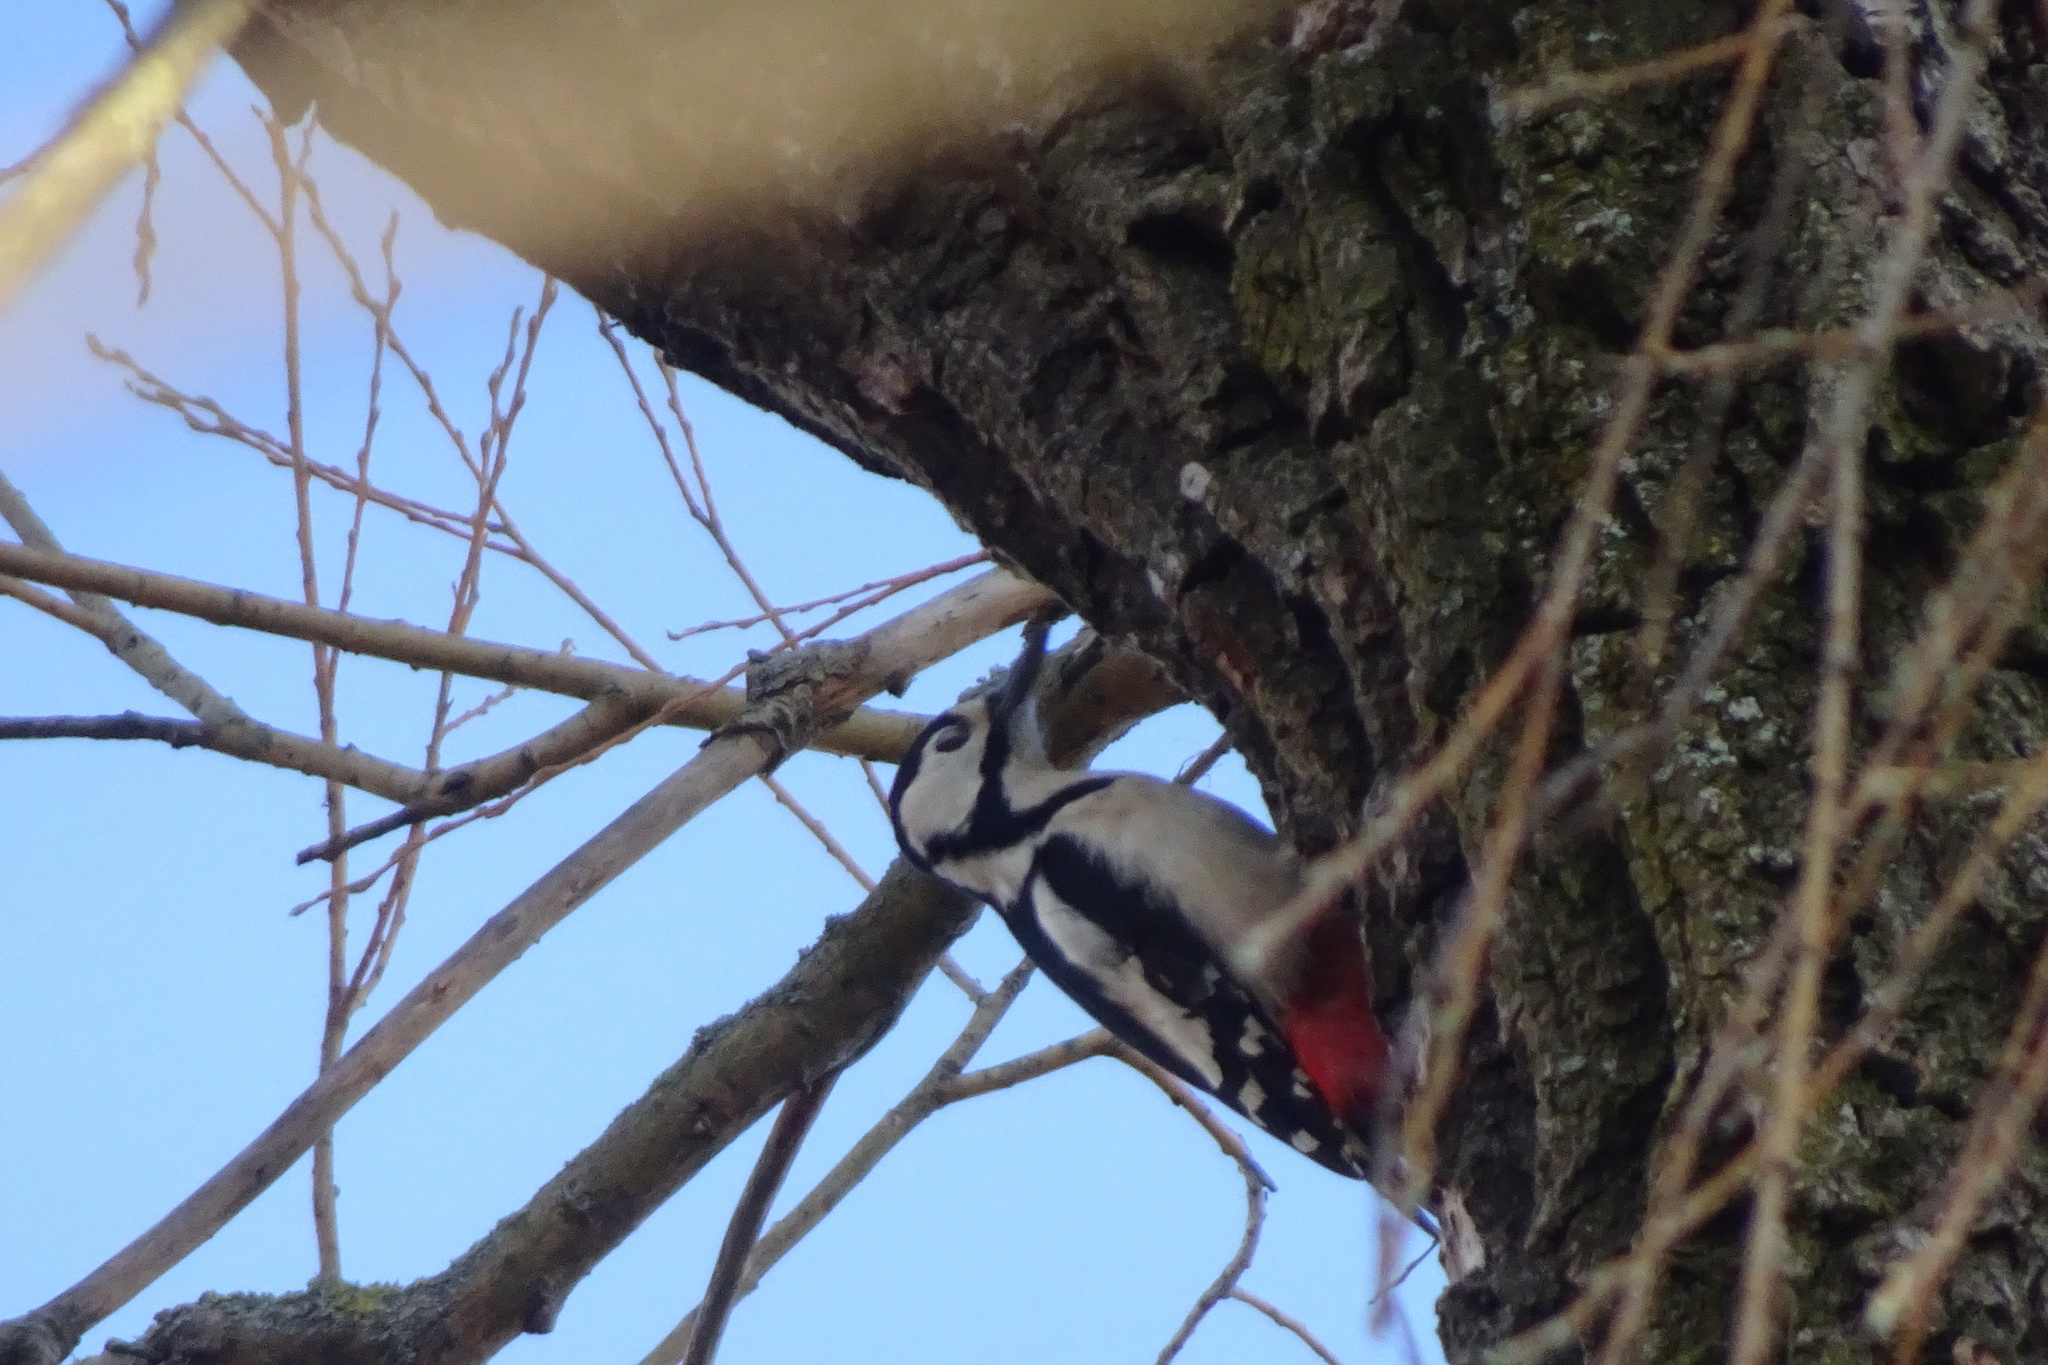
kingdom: Animalia
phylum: Chordata
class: Aves
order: Piciformes
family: Picidae
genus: Dendrocopos
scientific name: Dendrocopos major
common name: Great spotted woodpecker
